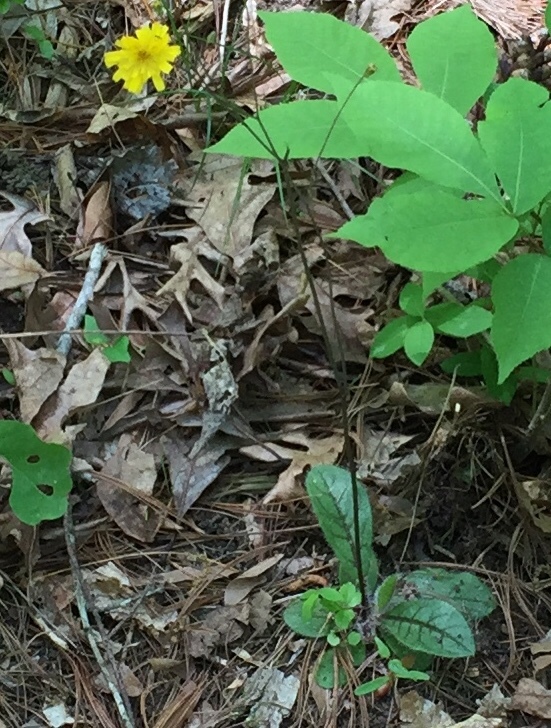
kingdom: Plantae
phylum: Tracheophyta
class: Magnoliopsida
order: Asterales
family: Asteraceae
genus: Hieracium
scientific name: Hieracium venosum
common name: Rattlesnake hawkweed
